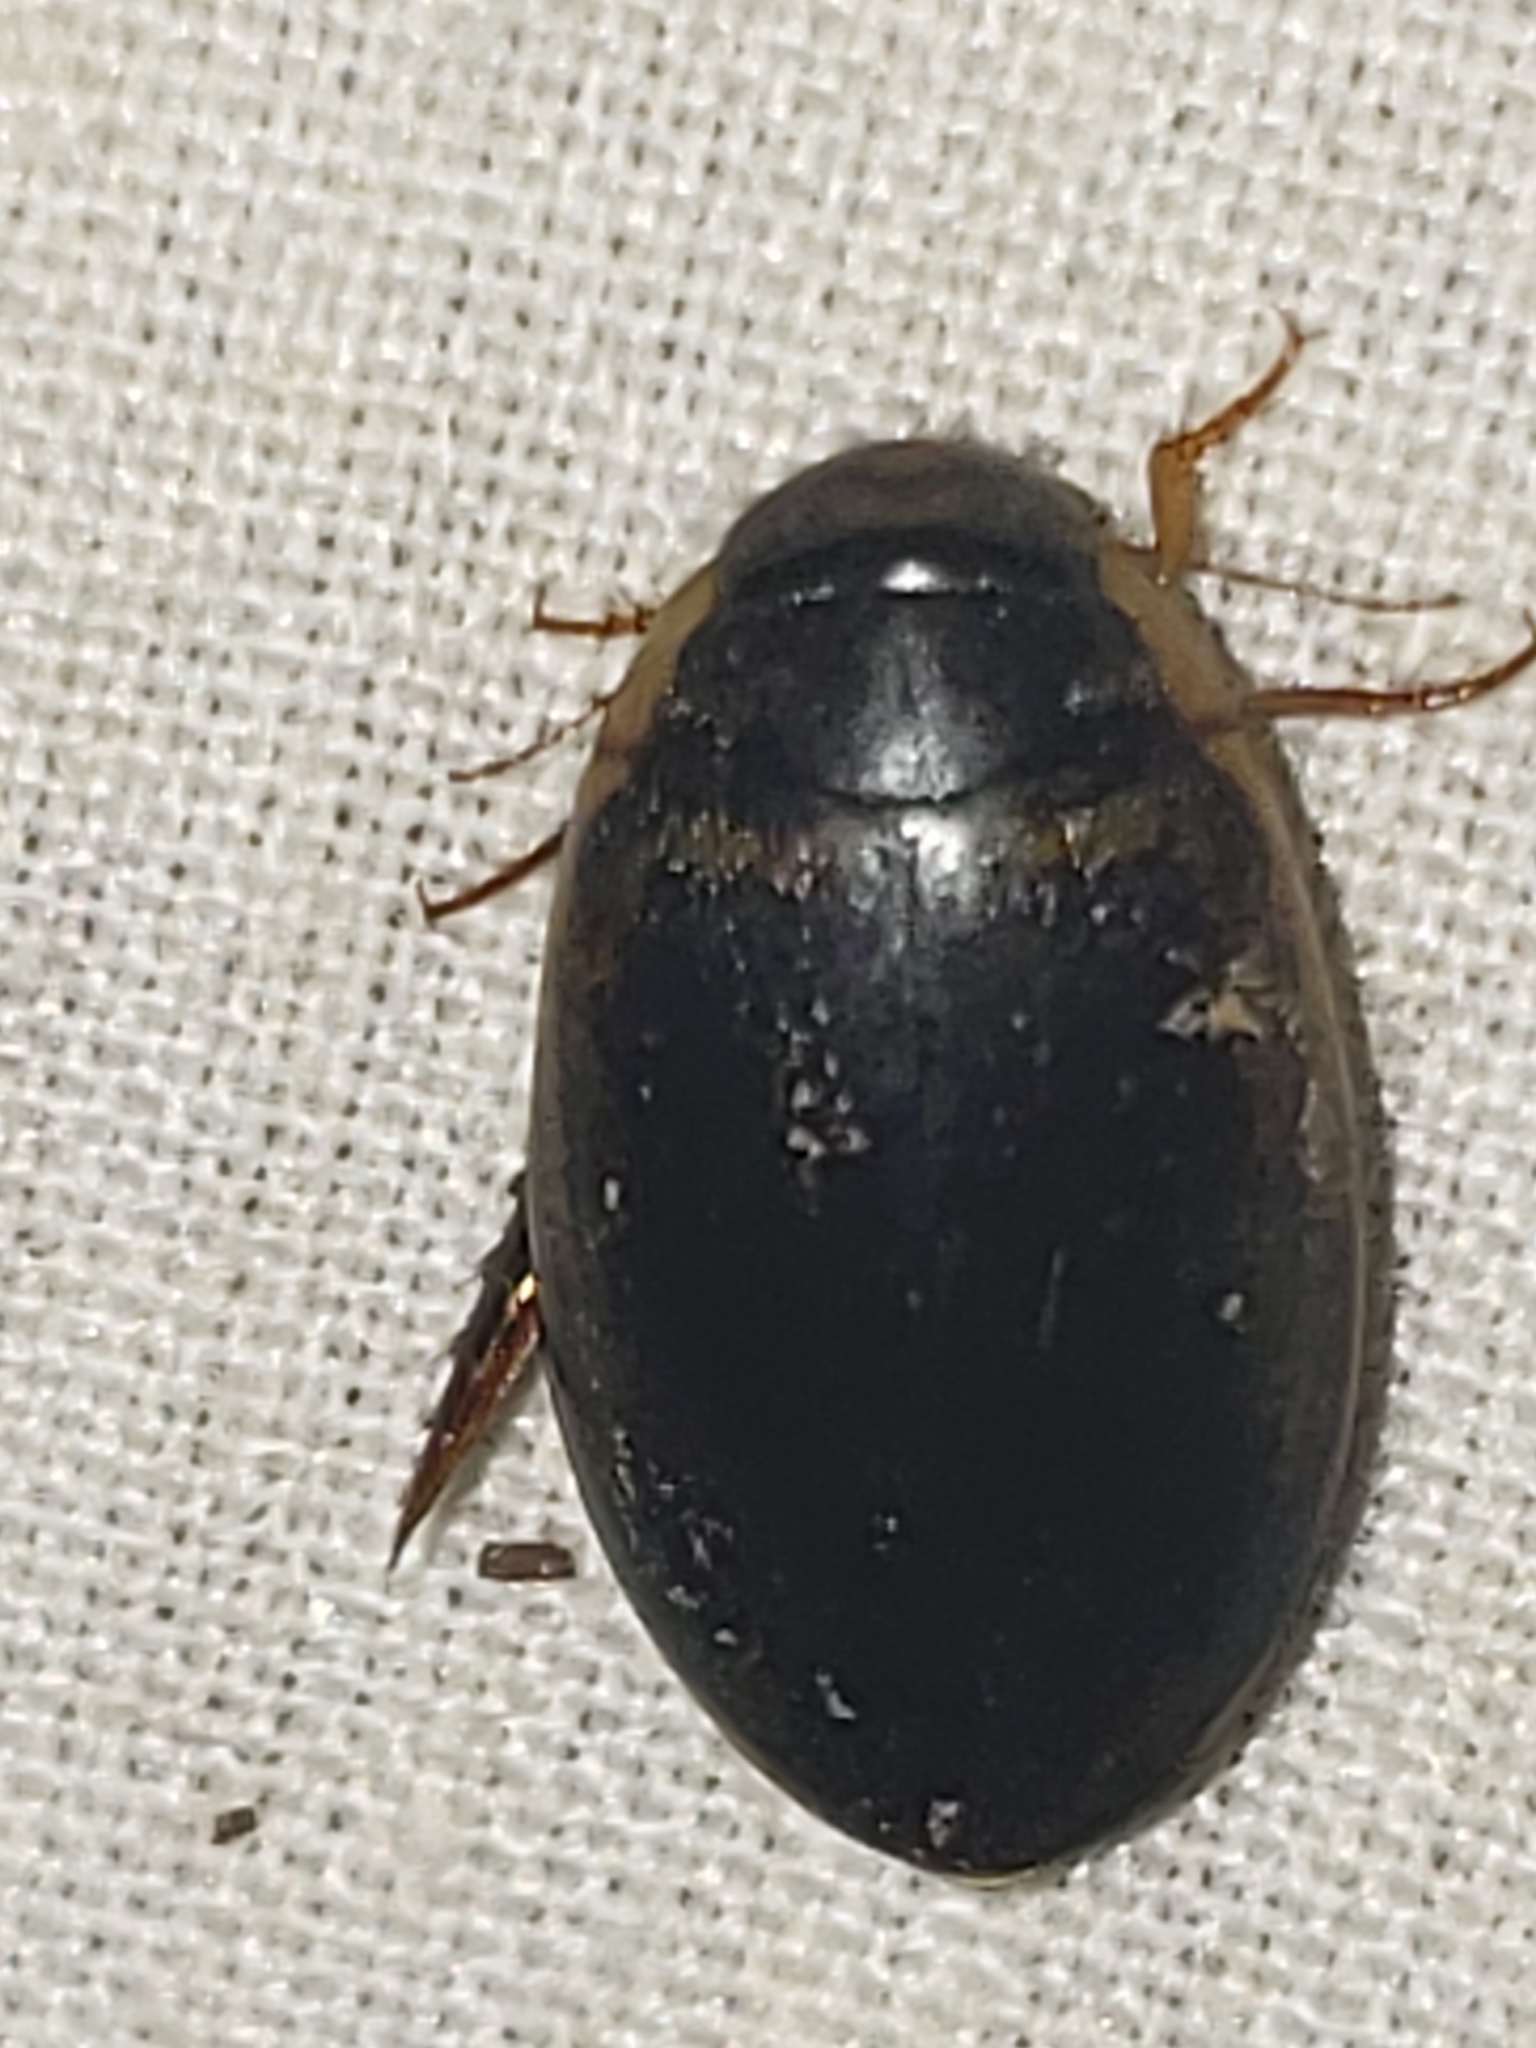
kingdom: Animalia
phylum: Arthropoda
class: Insecta
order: Coleoptera
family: Dytiscidae
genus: Thermonectus
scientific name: Thermonectus basillaris
